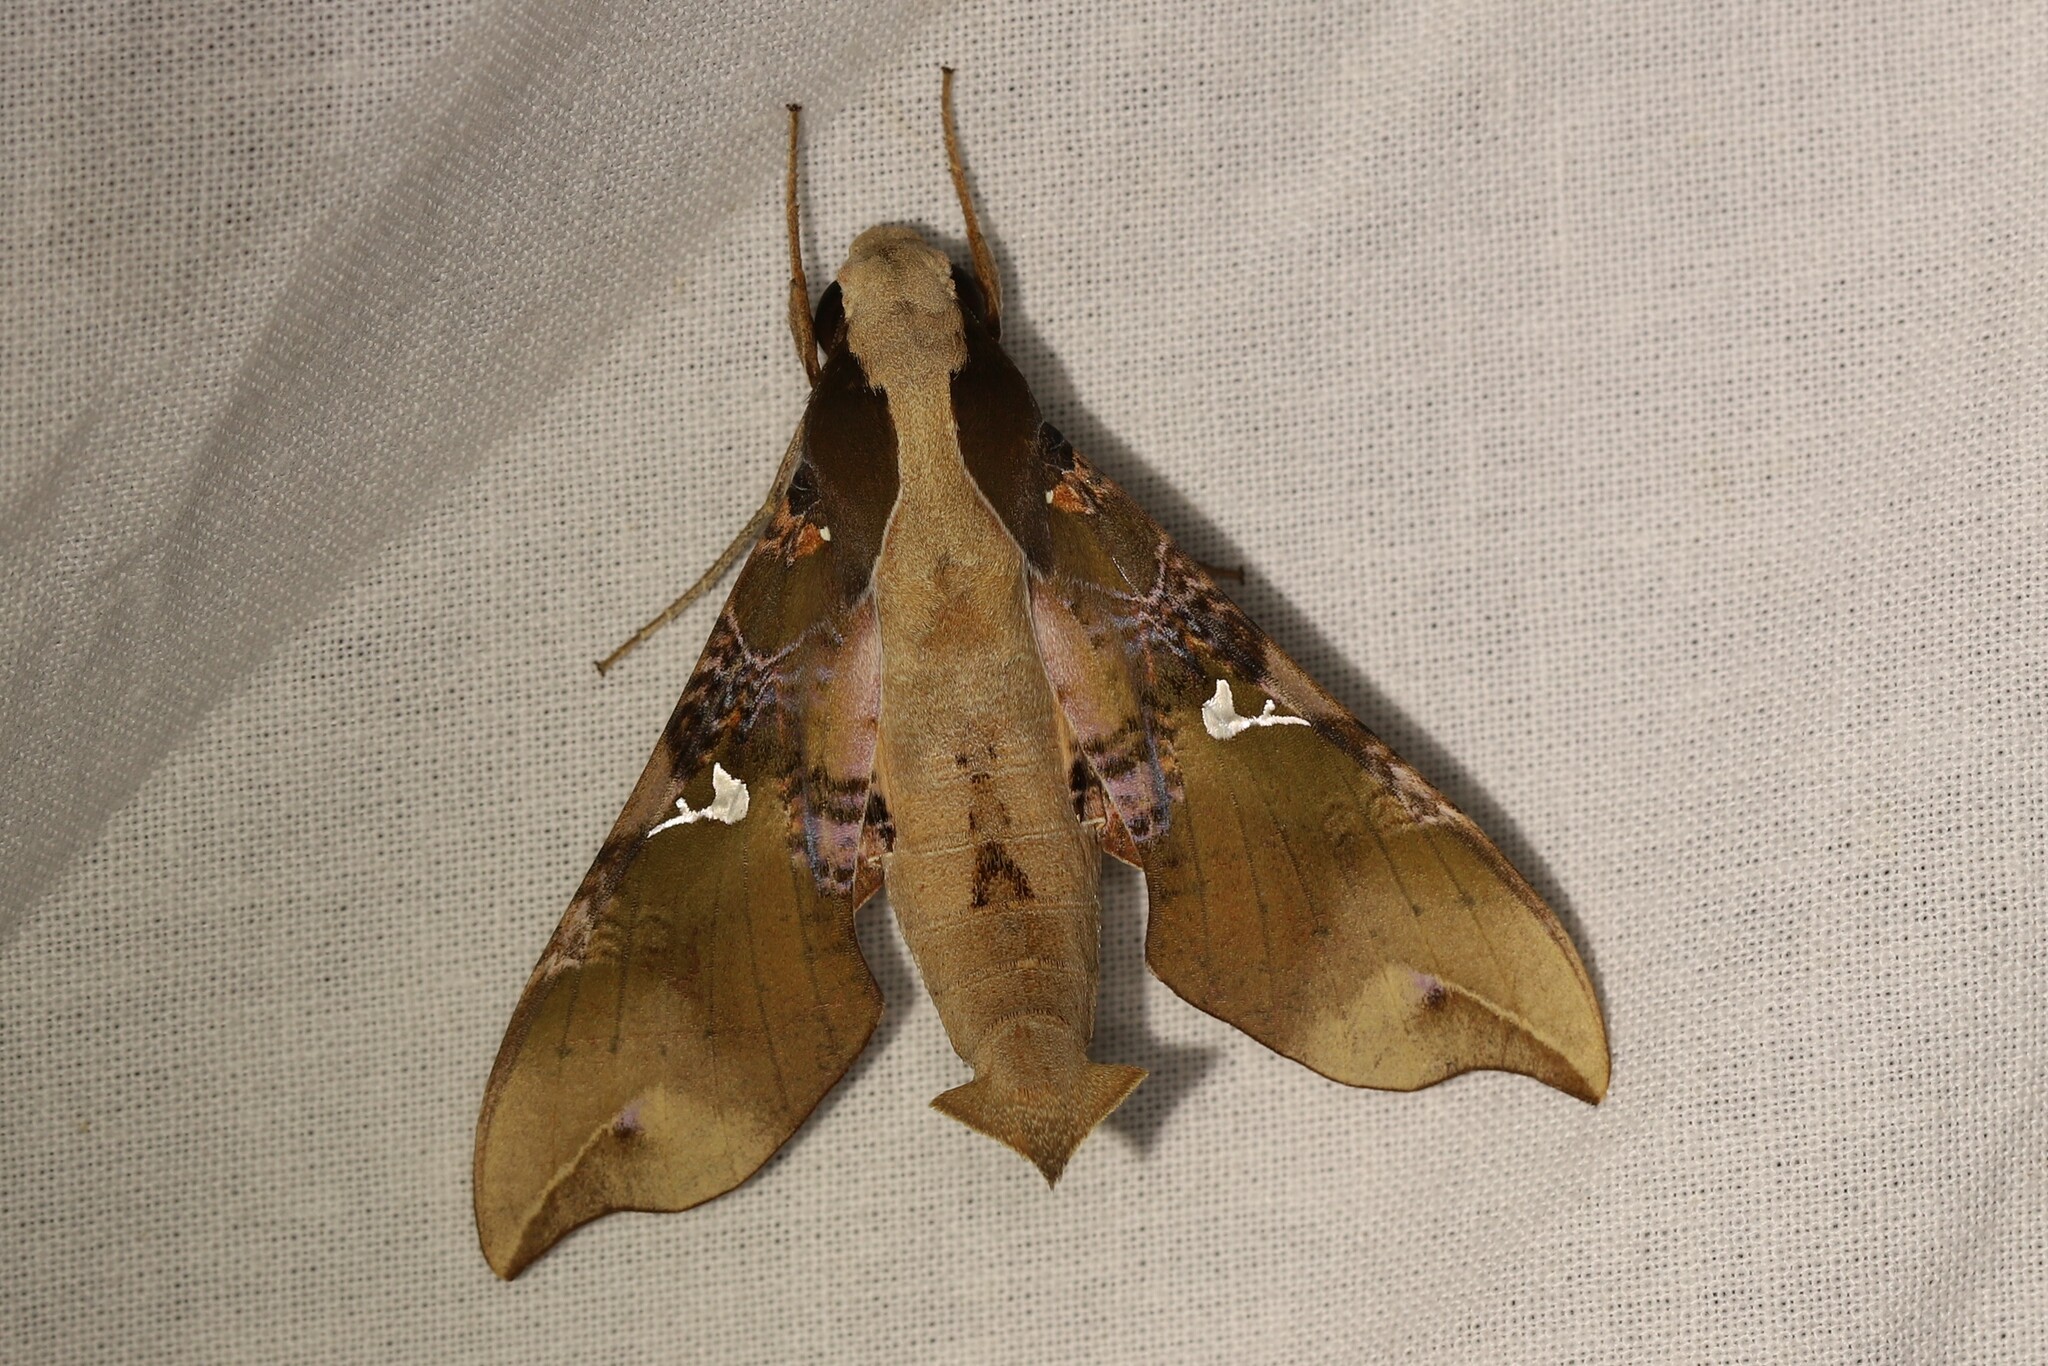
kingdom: Animalia
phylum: Arthropoda
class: Insecta
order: Lepidoptera
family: Sphingidae
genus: Callionima
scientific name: Callionima parce
